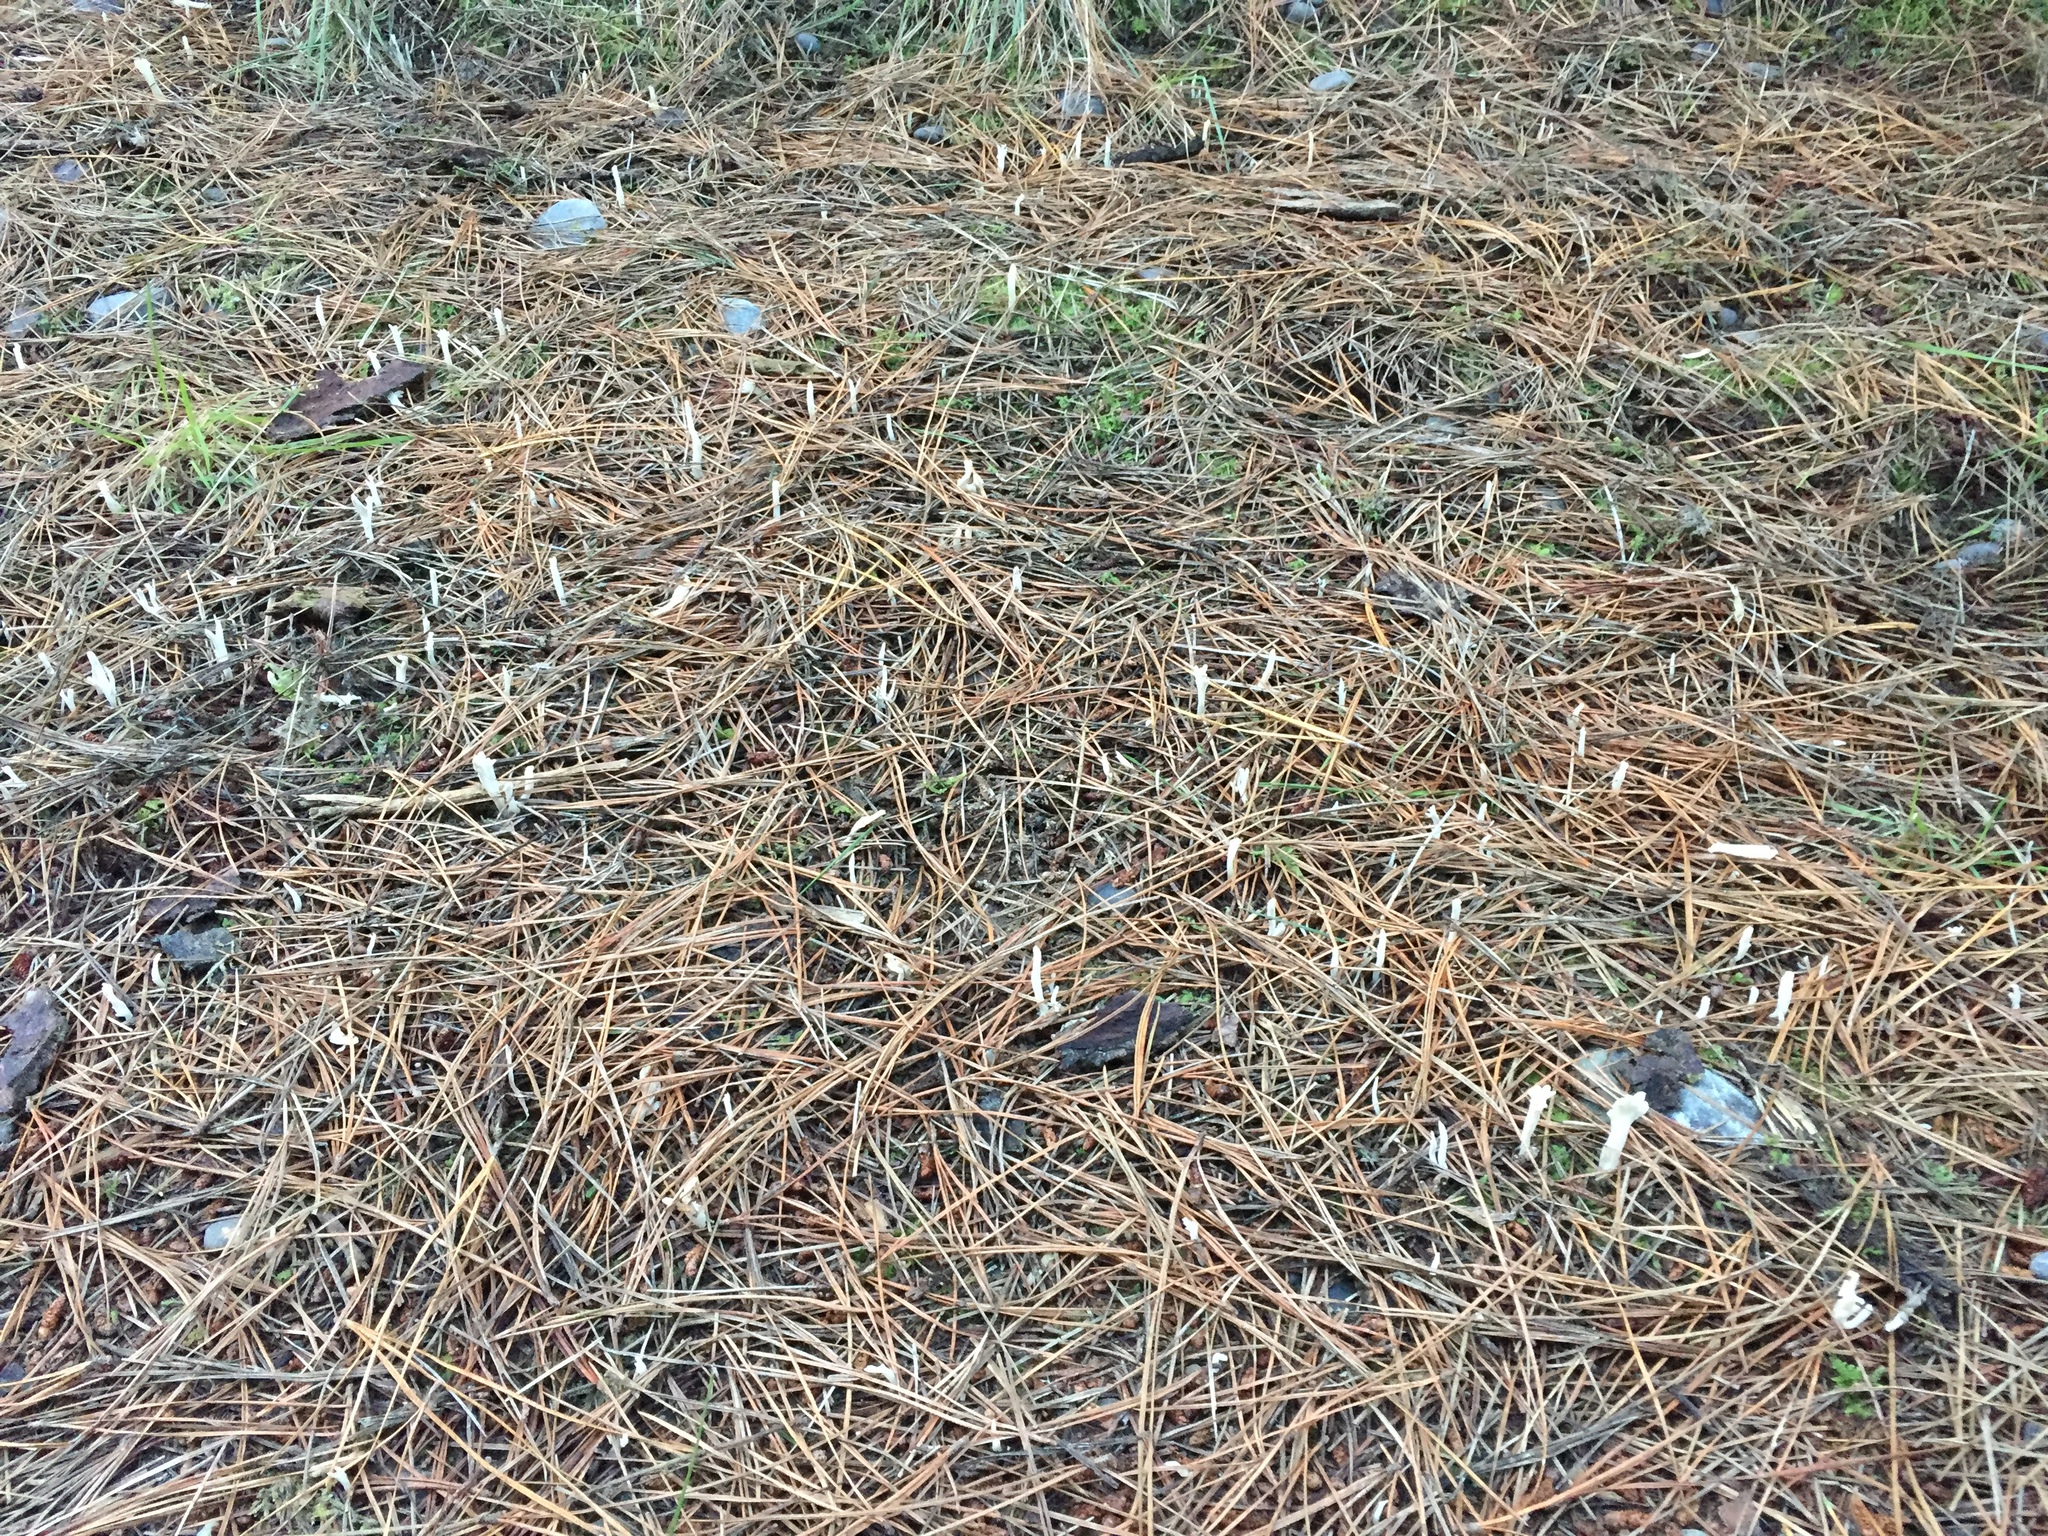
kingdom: Fungi
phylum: Basidiomycota
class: Agaricomycetes
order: Cantharellales
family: Hydnaceae
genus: Clavulina
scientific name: Clavulina rugosa
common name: Wrinkled club
